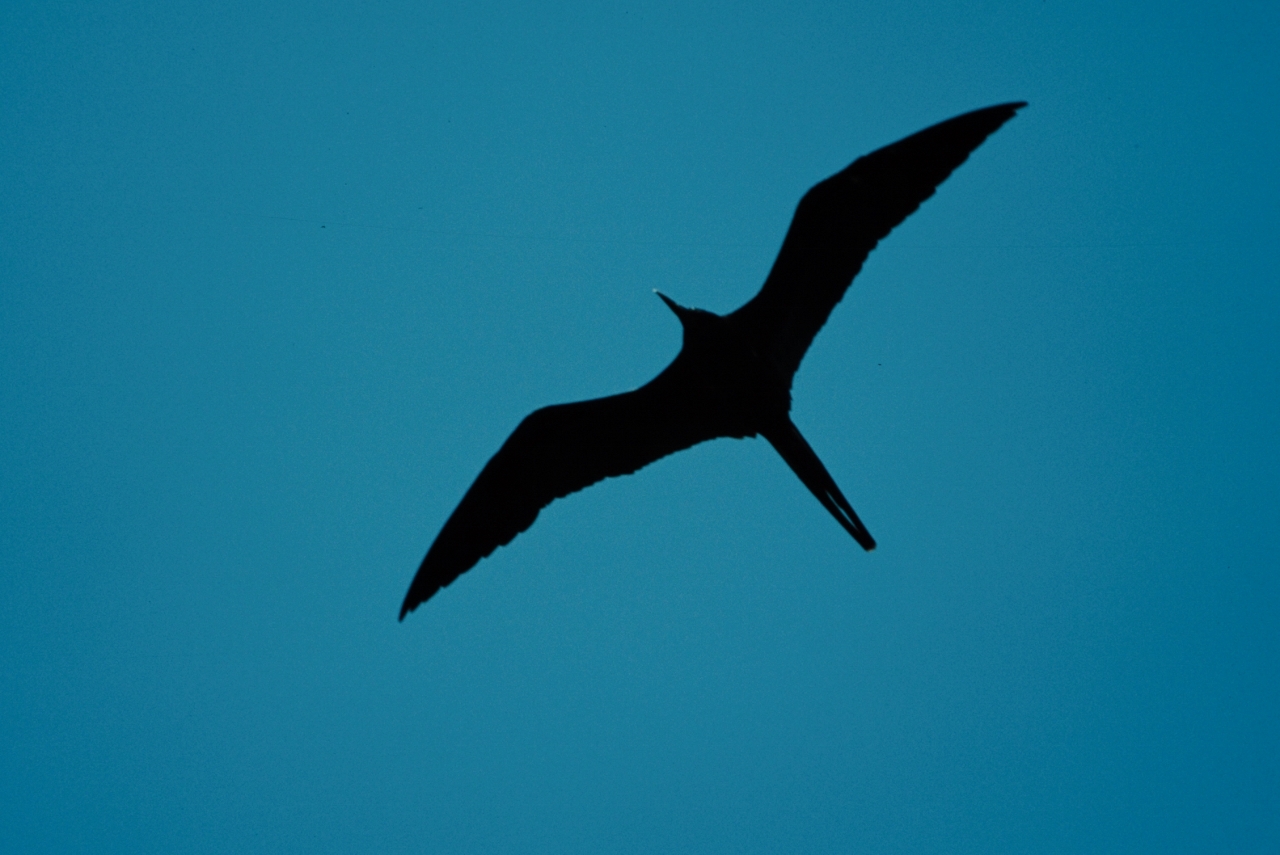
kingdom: Animalia
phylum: Chordata
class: Aves
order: Suliformes
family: Fregatidae
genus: Fregata
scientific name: Fregata minor
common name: Great frigatebird
